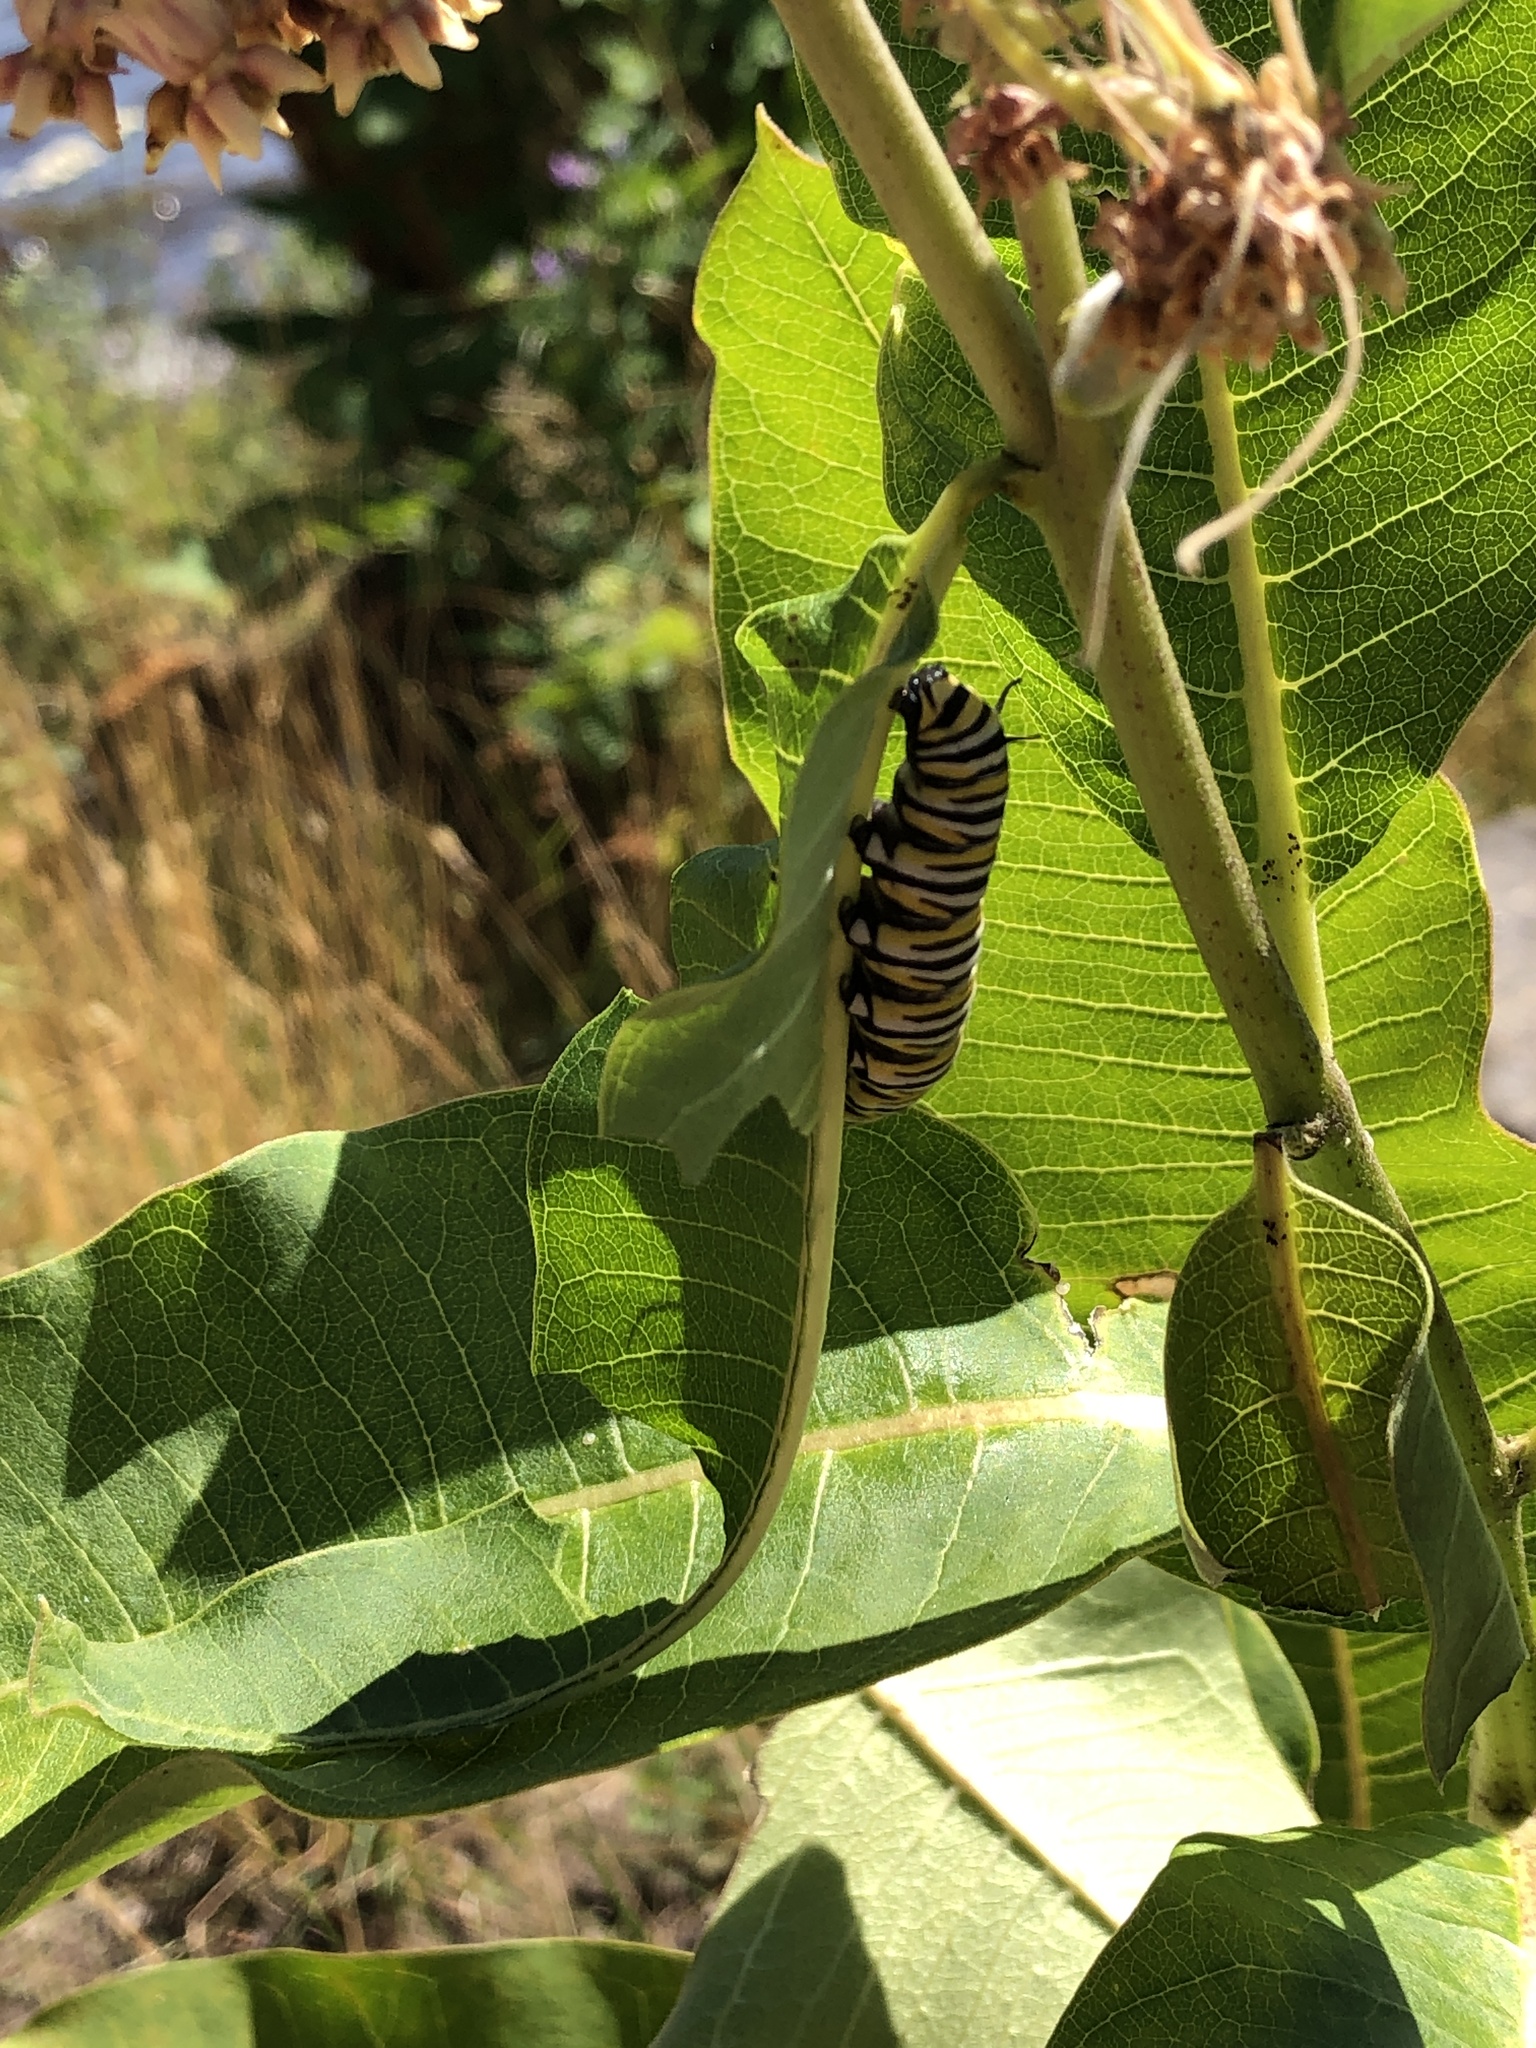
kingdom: Animalia
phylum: Arthropoda
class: Insecta
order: Lepidoptera
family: Nymphalidae
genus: Danaus
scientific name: Danaus plexippus
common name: Monarch
